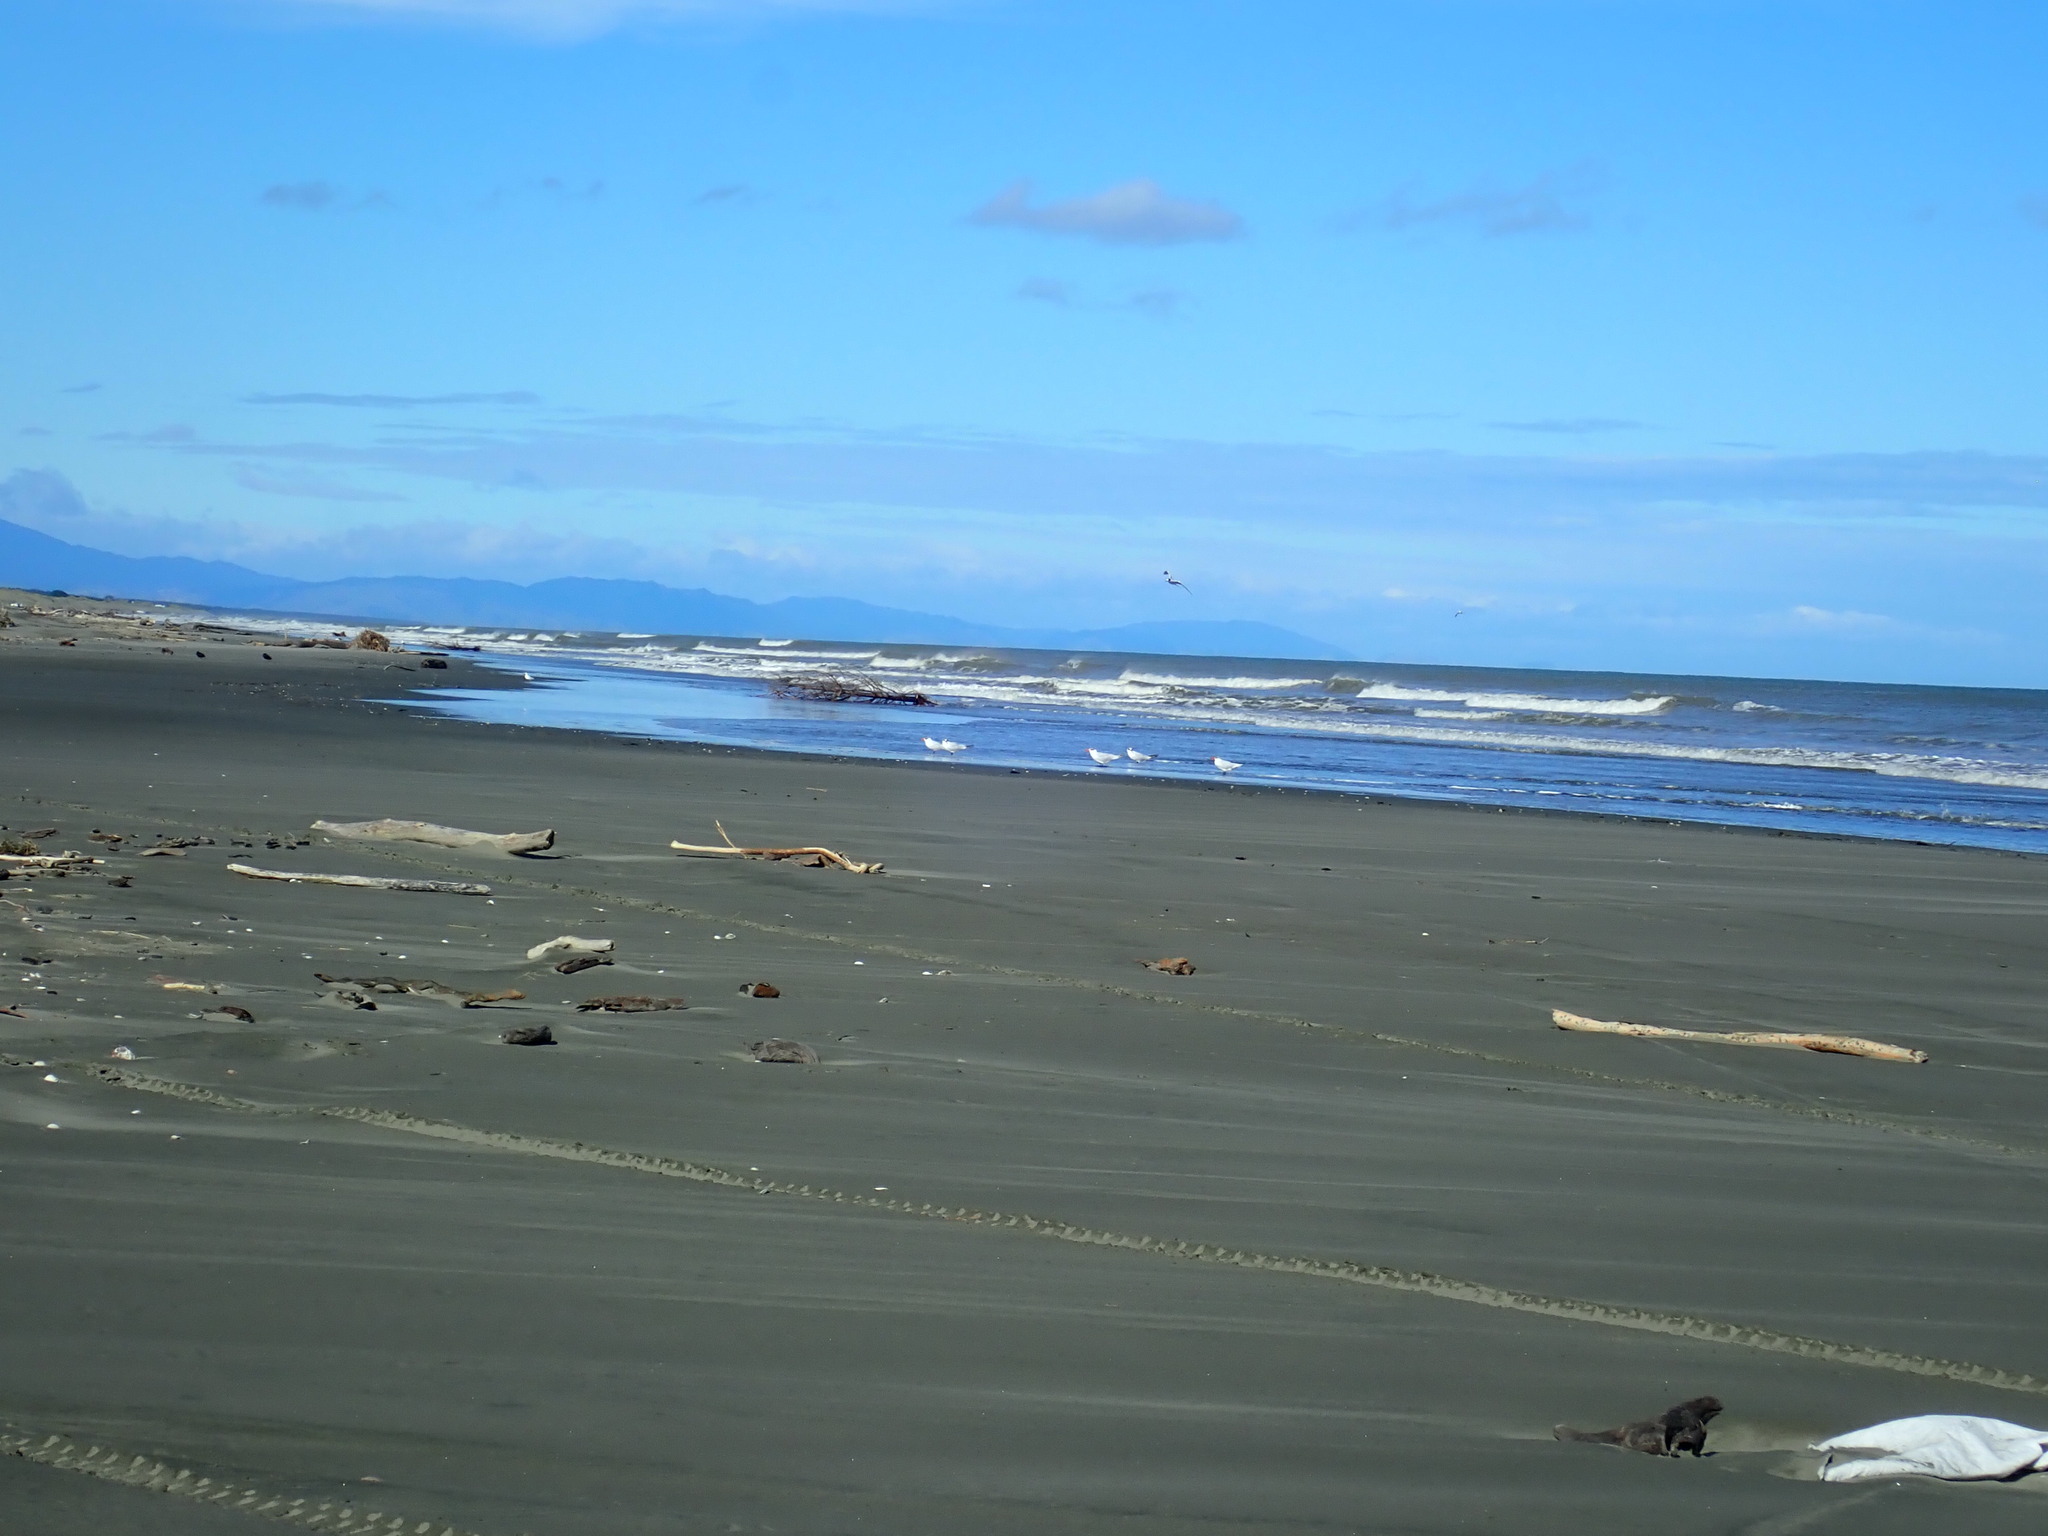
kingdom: Animalia
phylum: Chordata
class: Aves
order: Charadriiformes
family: Laridae
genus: Hydroprogne
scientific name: Hydroprogne caspia
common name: Caspian tern
